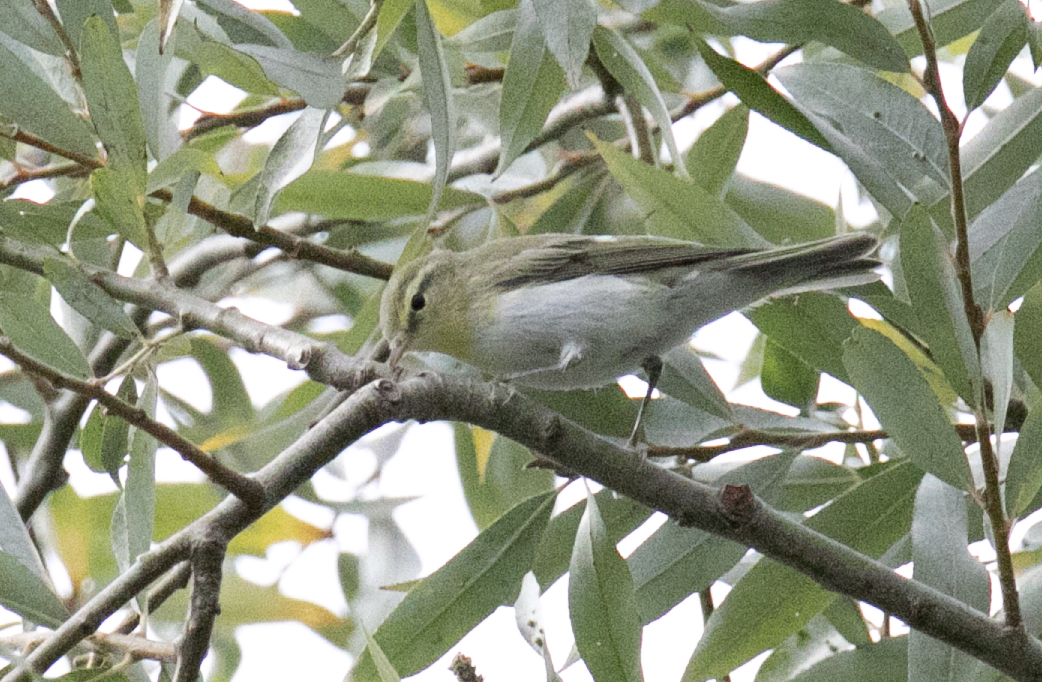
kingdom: Animalia
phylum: Chordata
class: Aves
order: Passeriformes
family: Phylloscopidae
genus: Phylloscopus
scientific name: Phylloscopus sibillatrix
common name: Wood warbler
